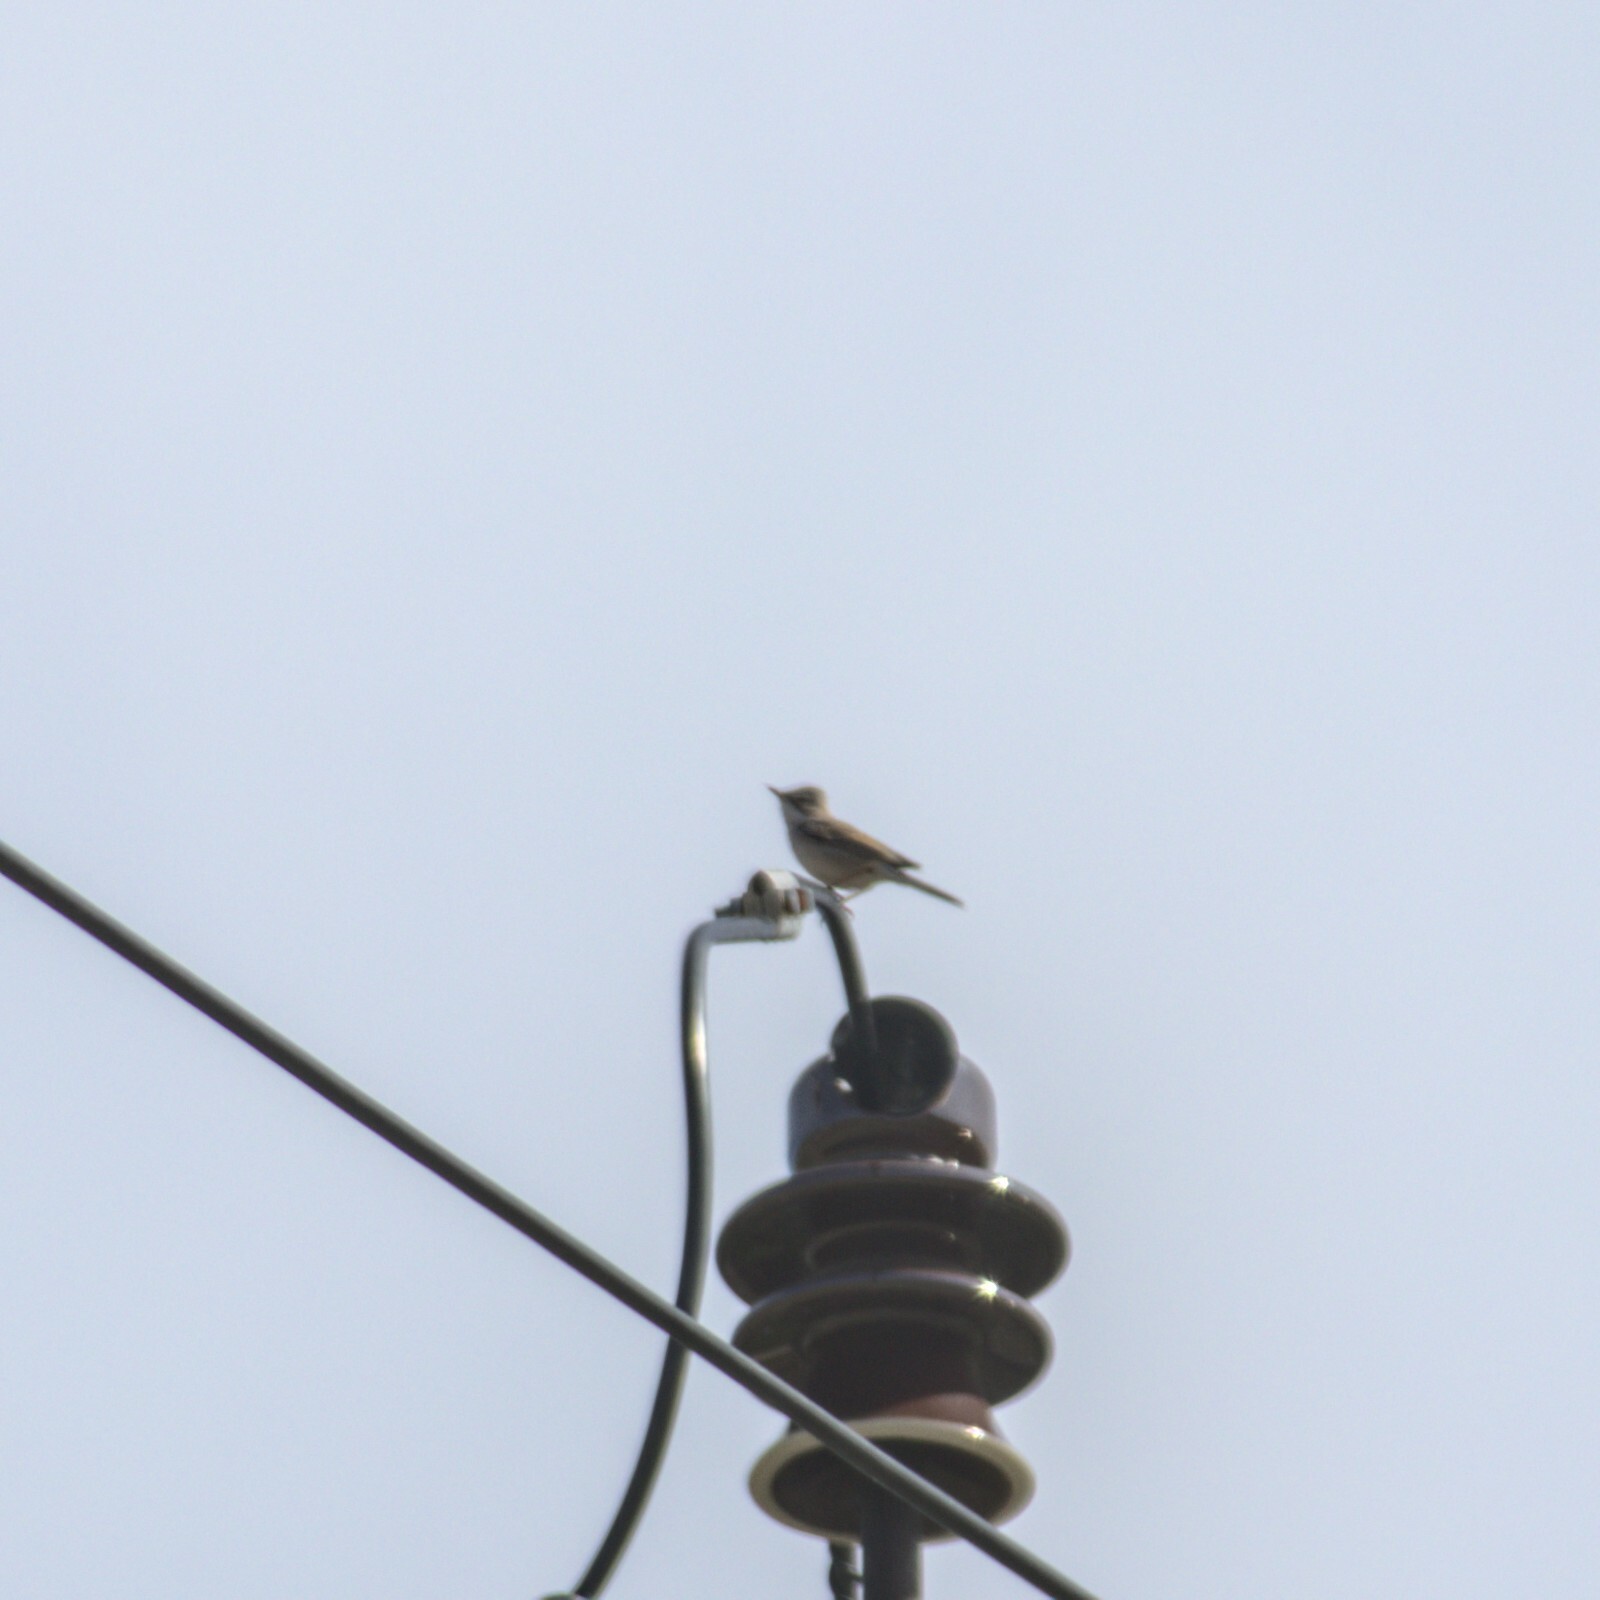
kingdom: Animalia
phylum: Chordata
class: Aves
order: Passeriformes
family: Sylviidae
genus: Sylvia
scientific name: Sylvia communis
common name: Common whitethroat
